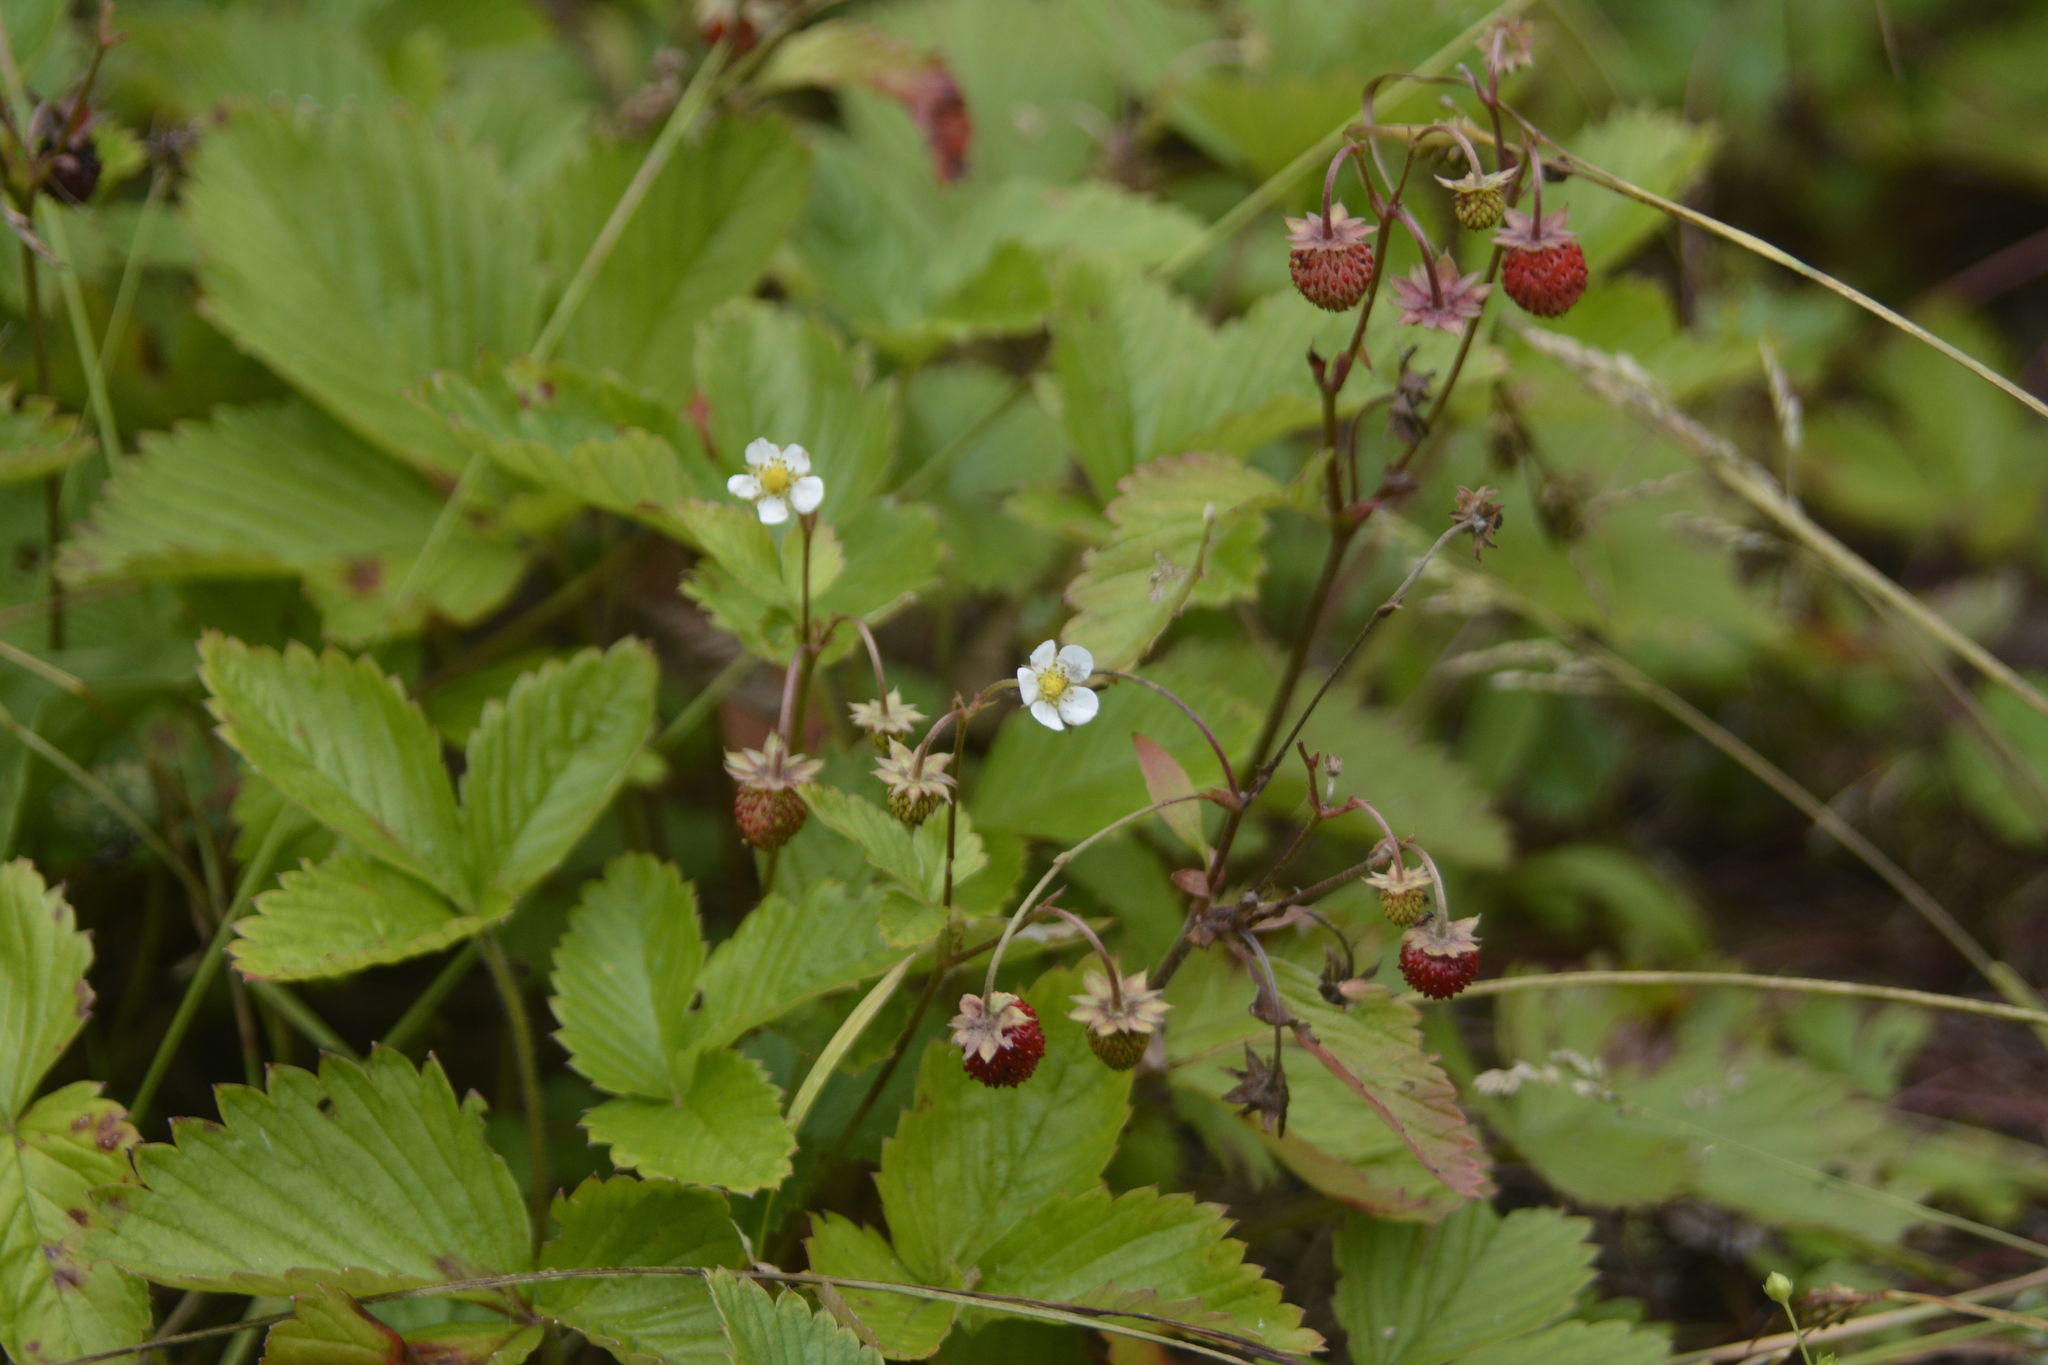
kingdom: Plantae
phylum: Tracheophyta
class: Magnoliopsida
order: Rosales
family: Rosaceae
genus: Fragaria
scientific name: Fragaria vesca
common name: Wild strawberry
